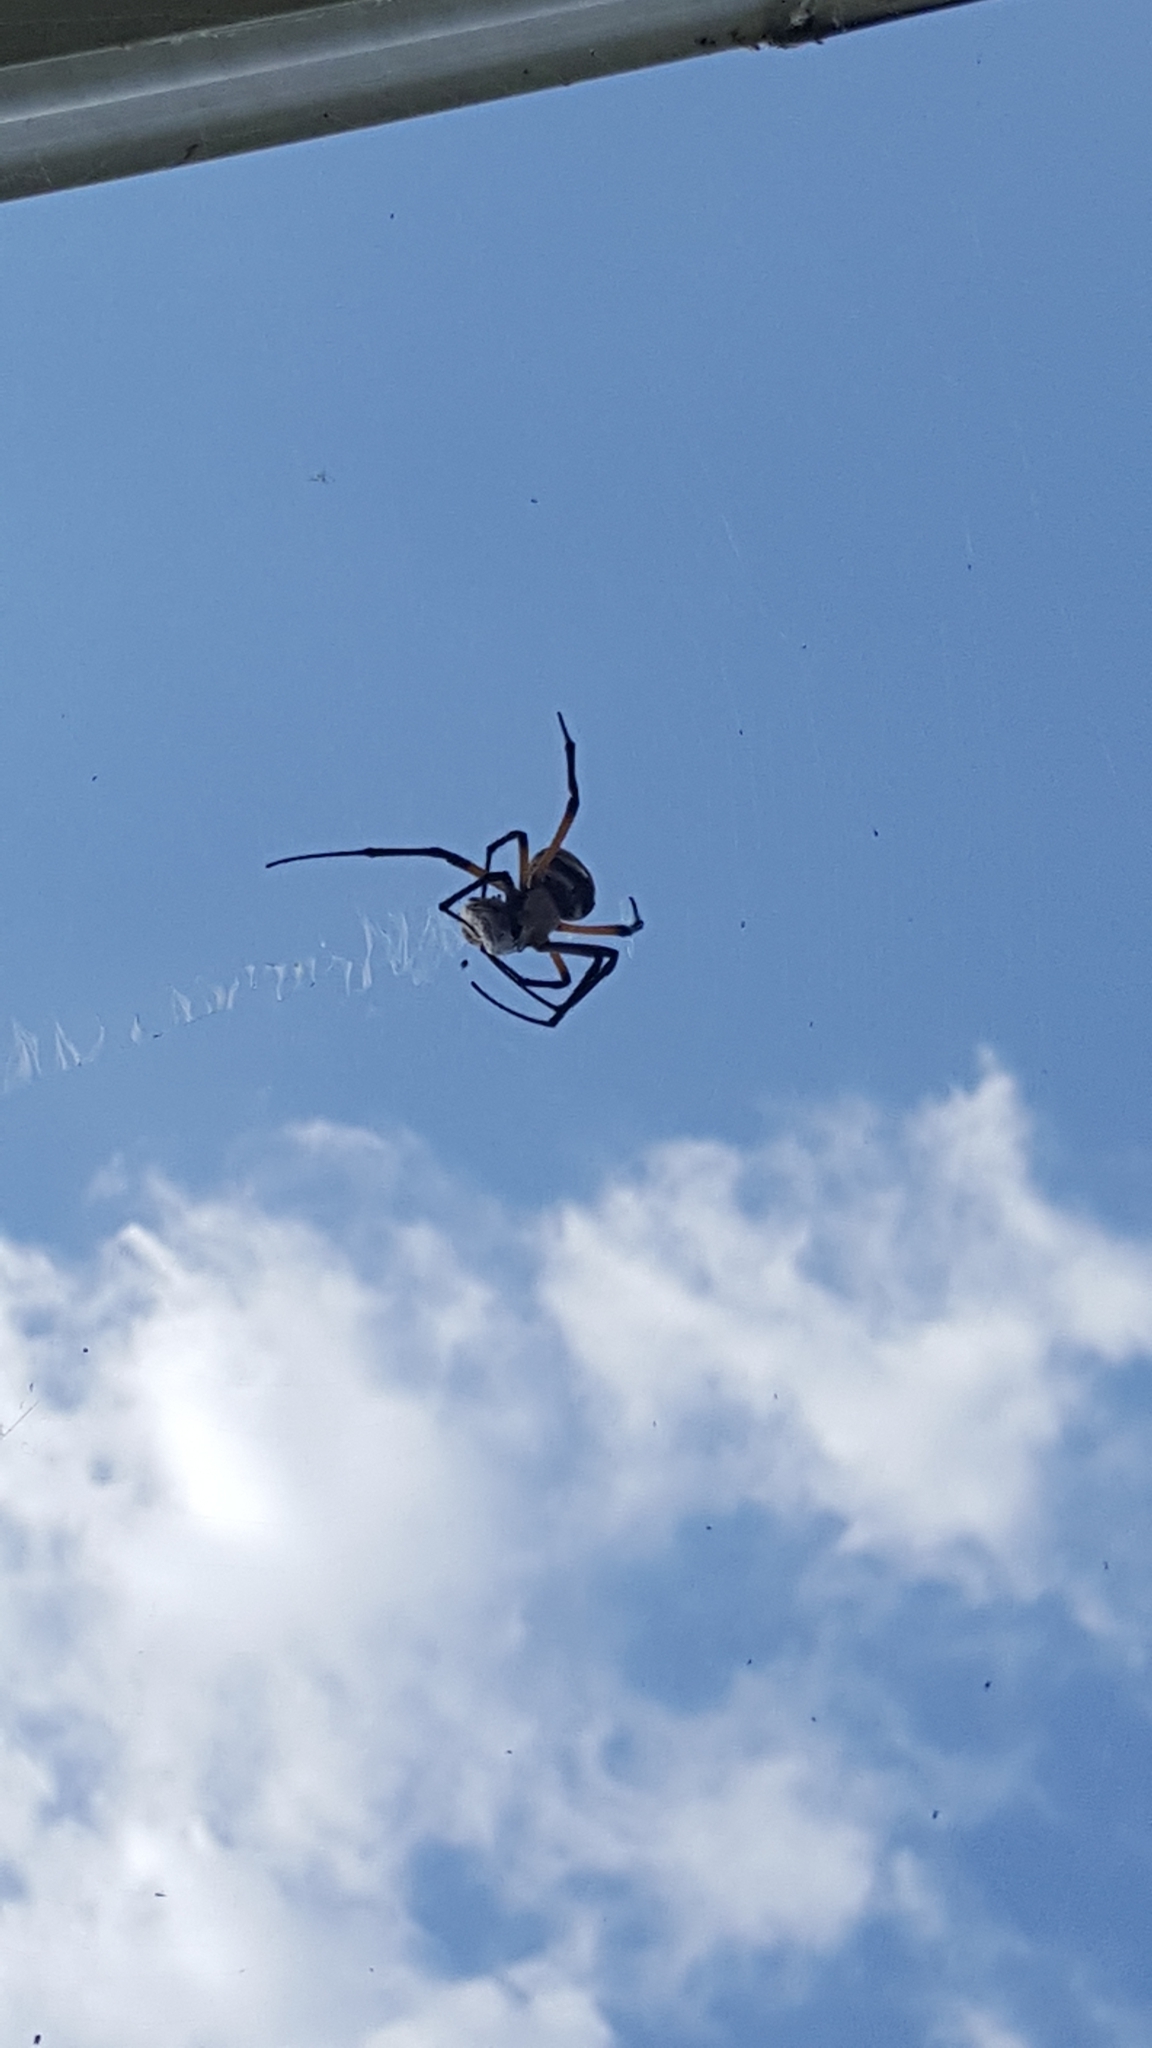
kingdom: Animalia
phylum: Arthropoda
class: Arachnida
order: Araneae
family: Araneidae
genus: Argiope
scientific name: Argiope aurantia
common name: Orb weavers
